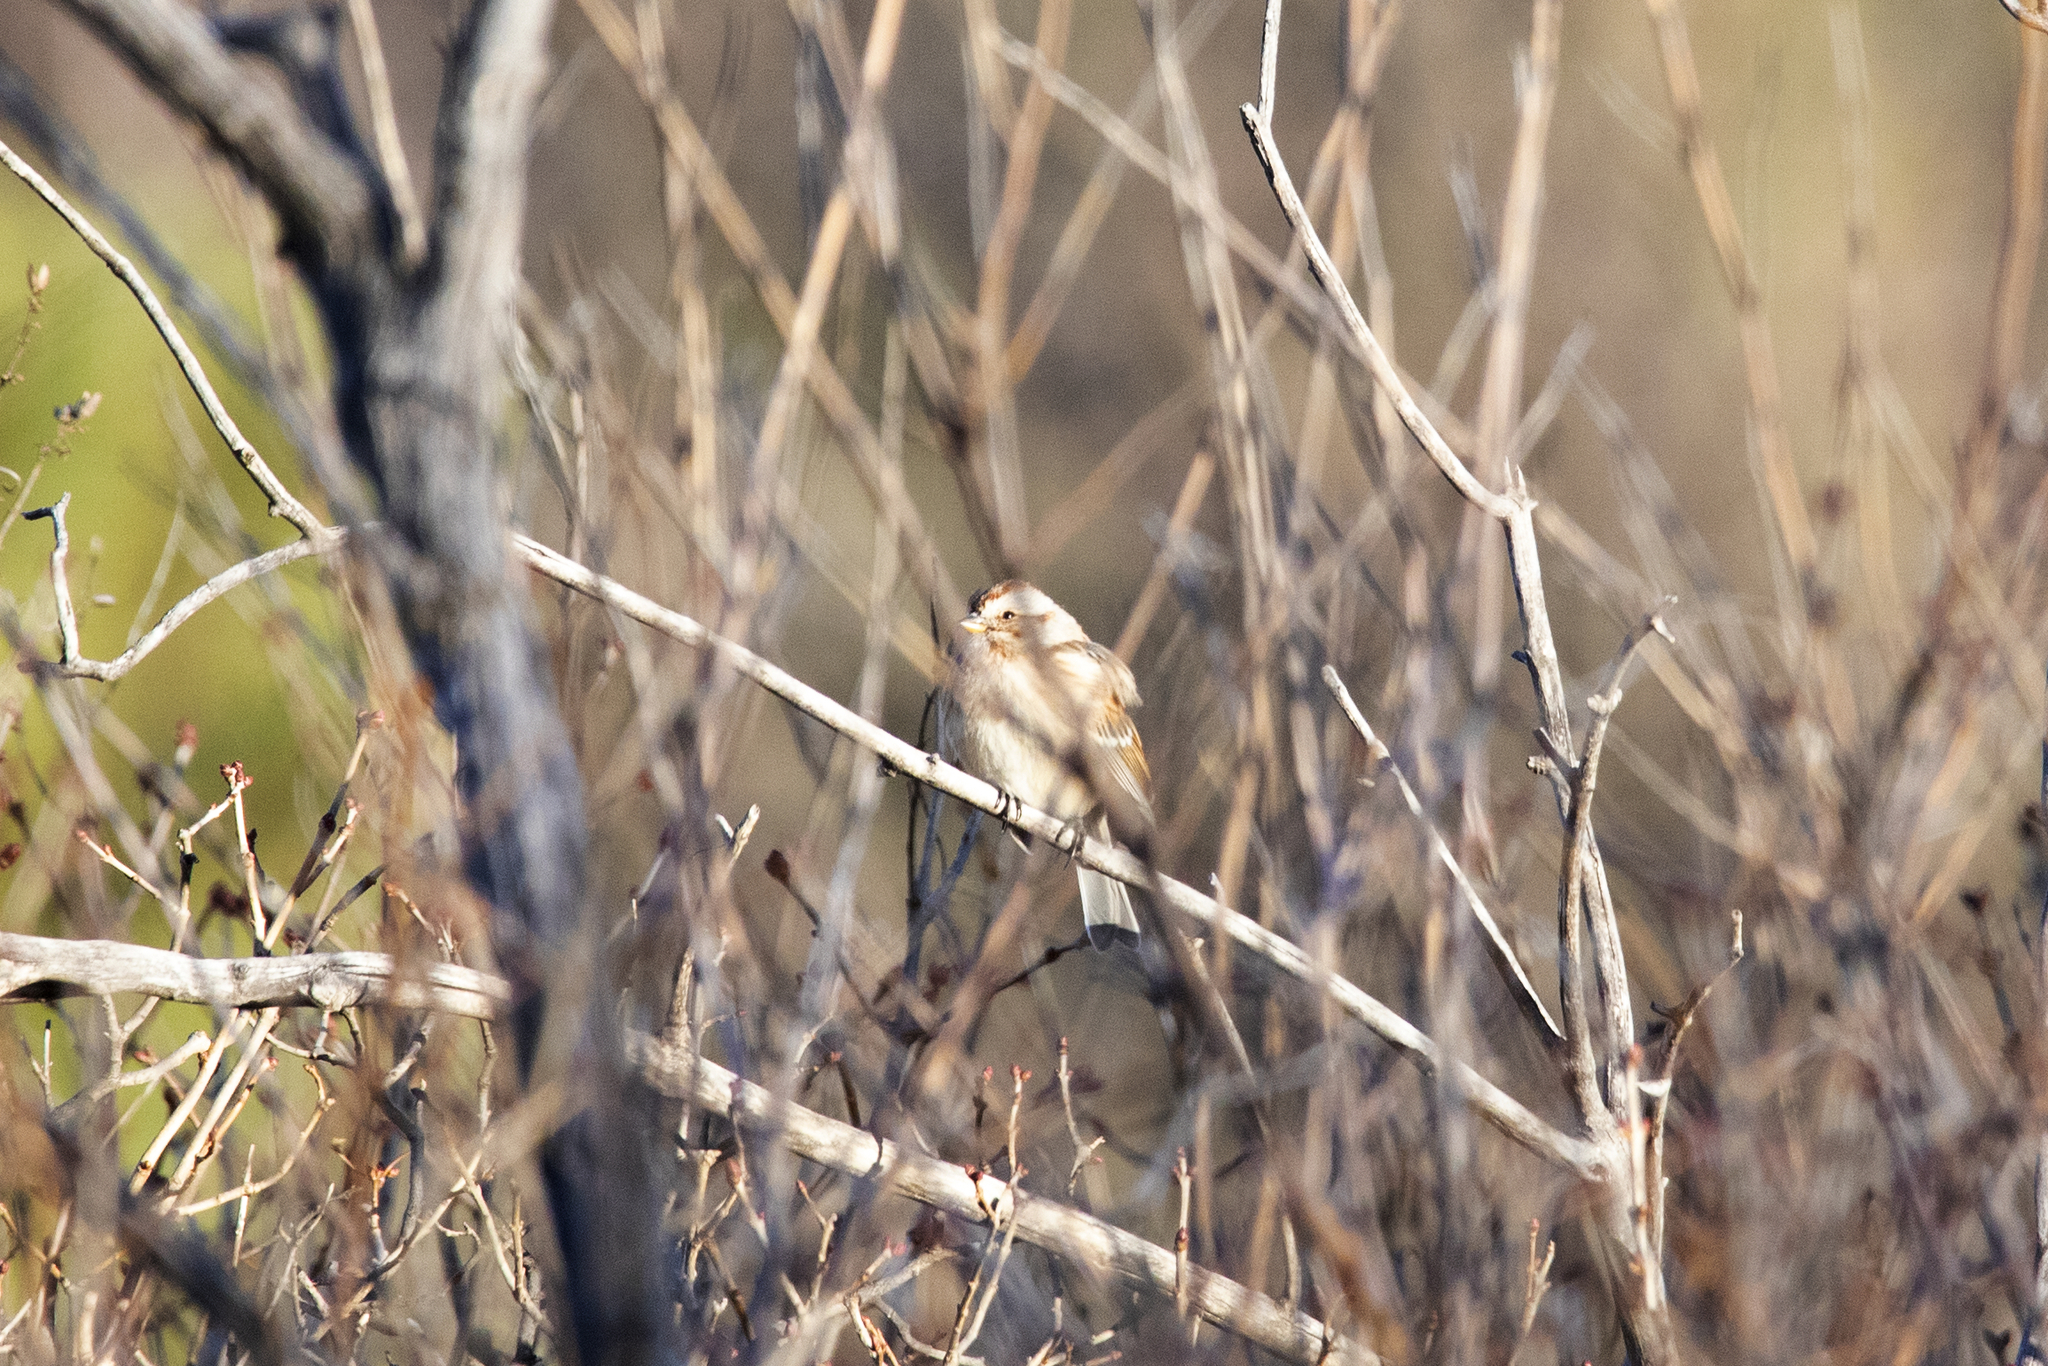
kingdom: Animalia
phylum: Chordata
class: Aves
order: Passeriformes
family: Passerellidae
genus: Spizelloides
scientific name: Spizelloides arborea
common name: American tree sparrow
